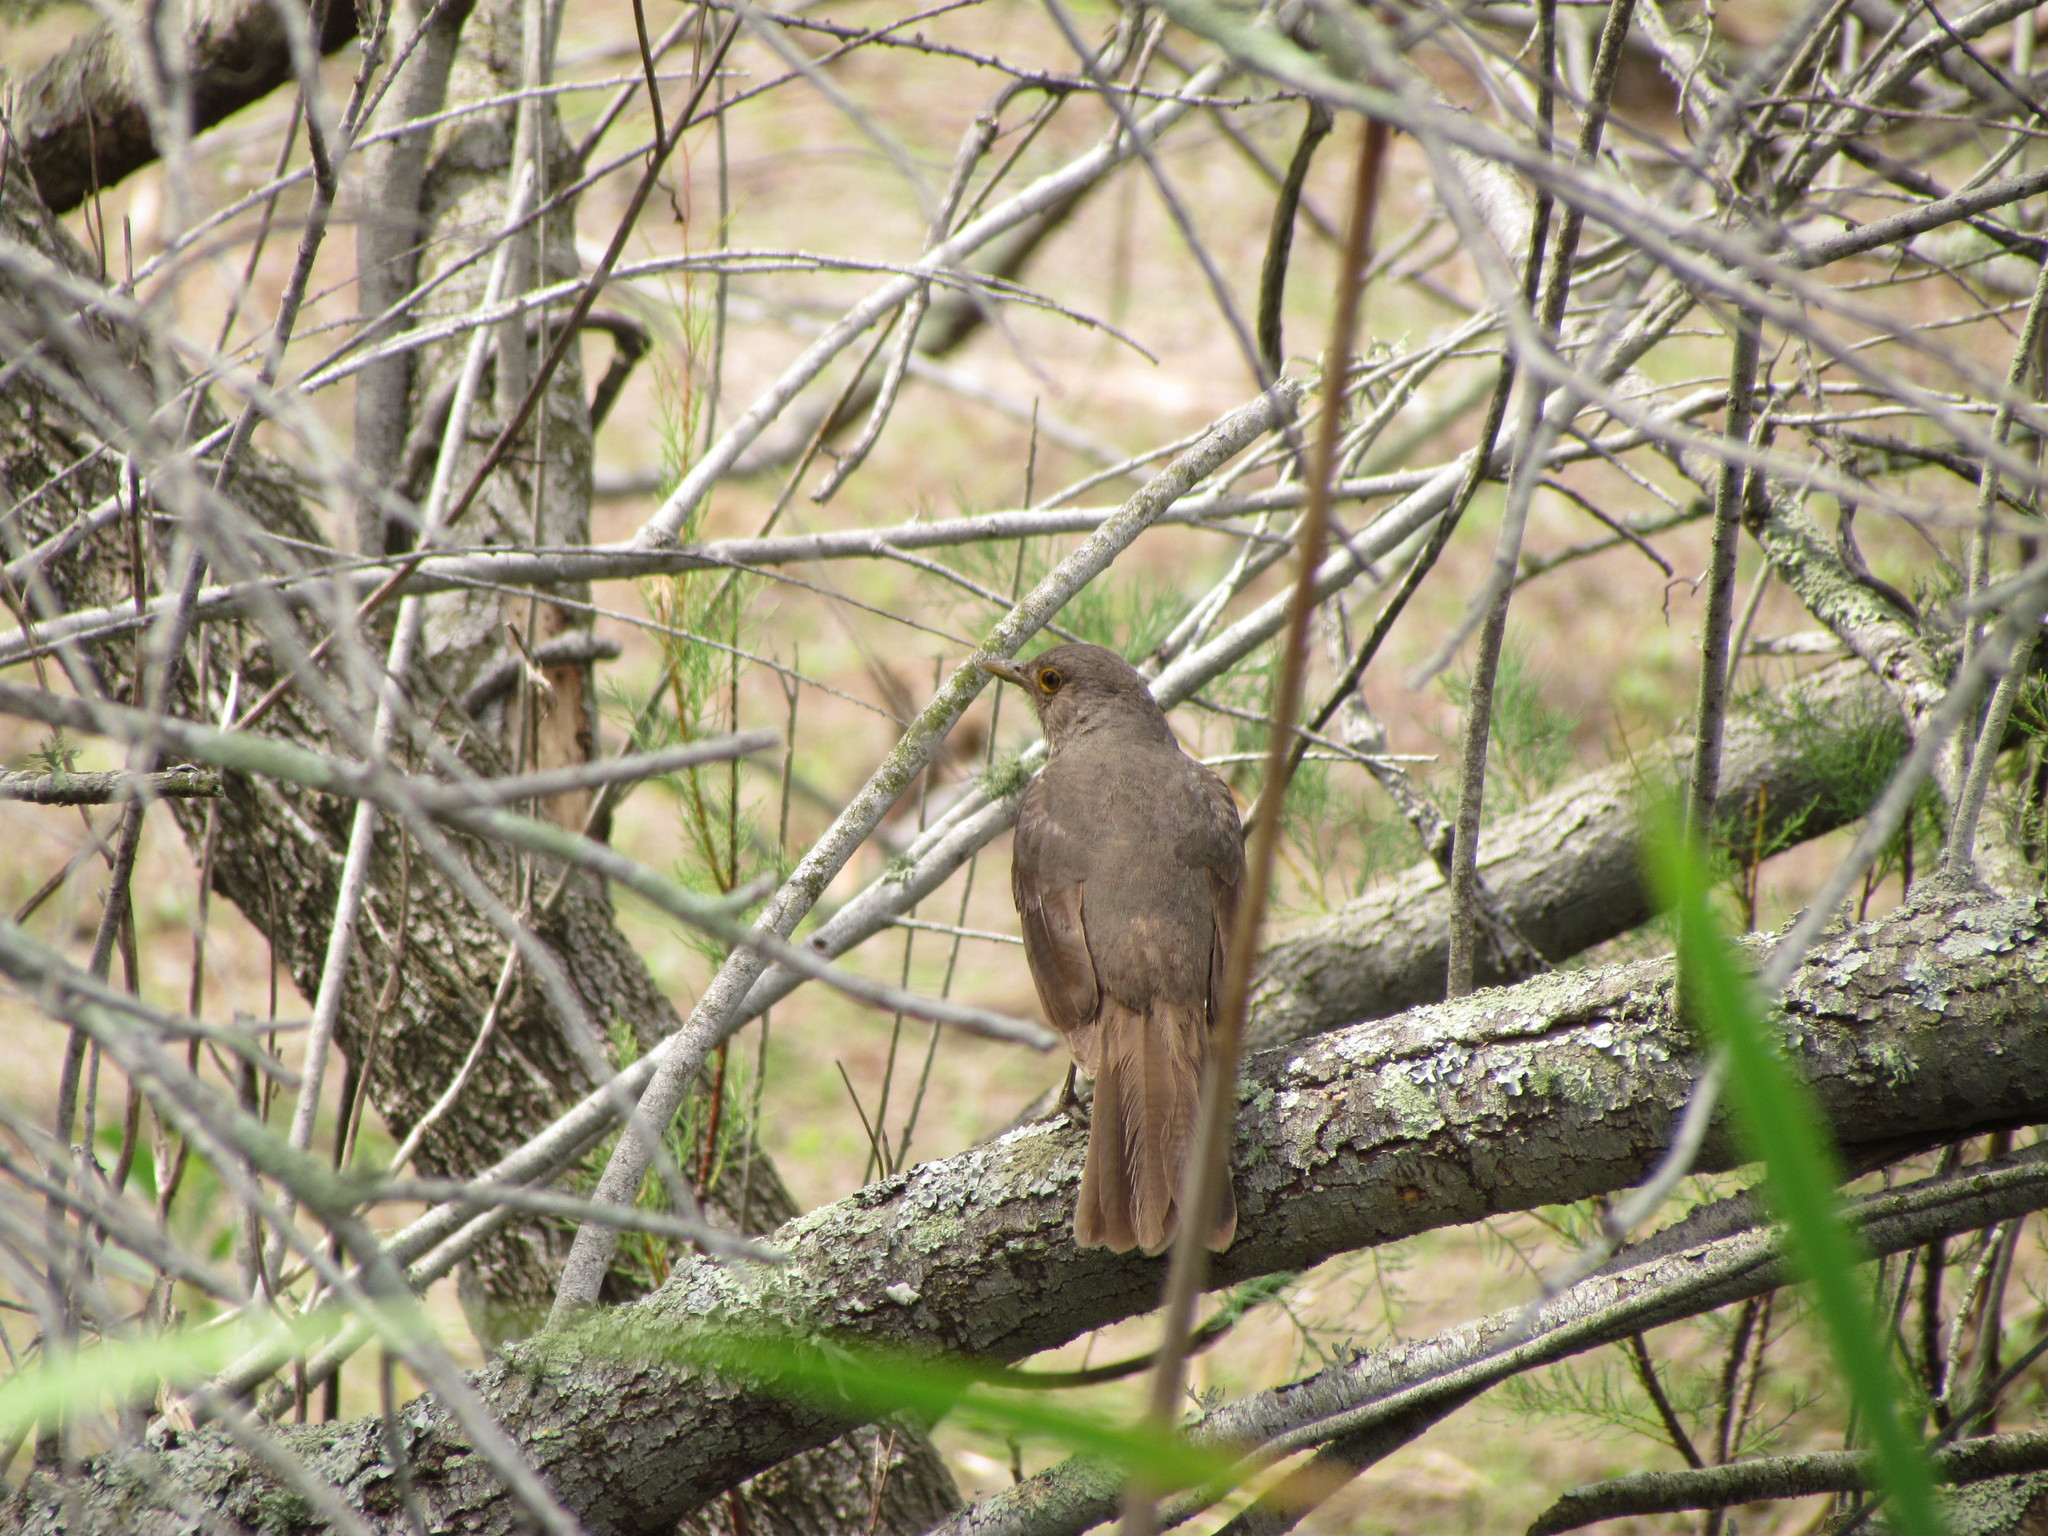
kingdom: Animalia
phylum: Chordata
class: Aves
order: Passeriformes
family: Turdidae
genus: Turdus
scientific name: Turdus rufiventris
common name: Rufous-bellied thrush
